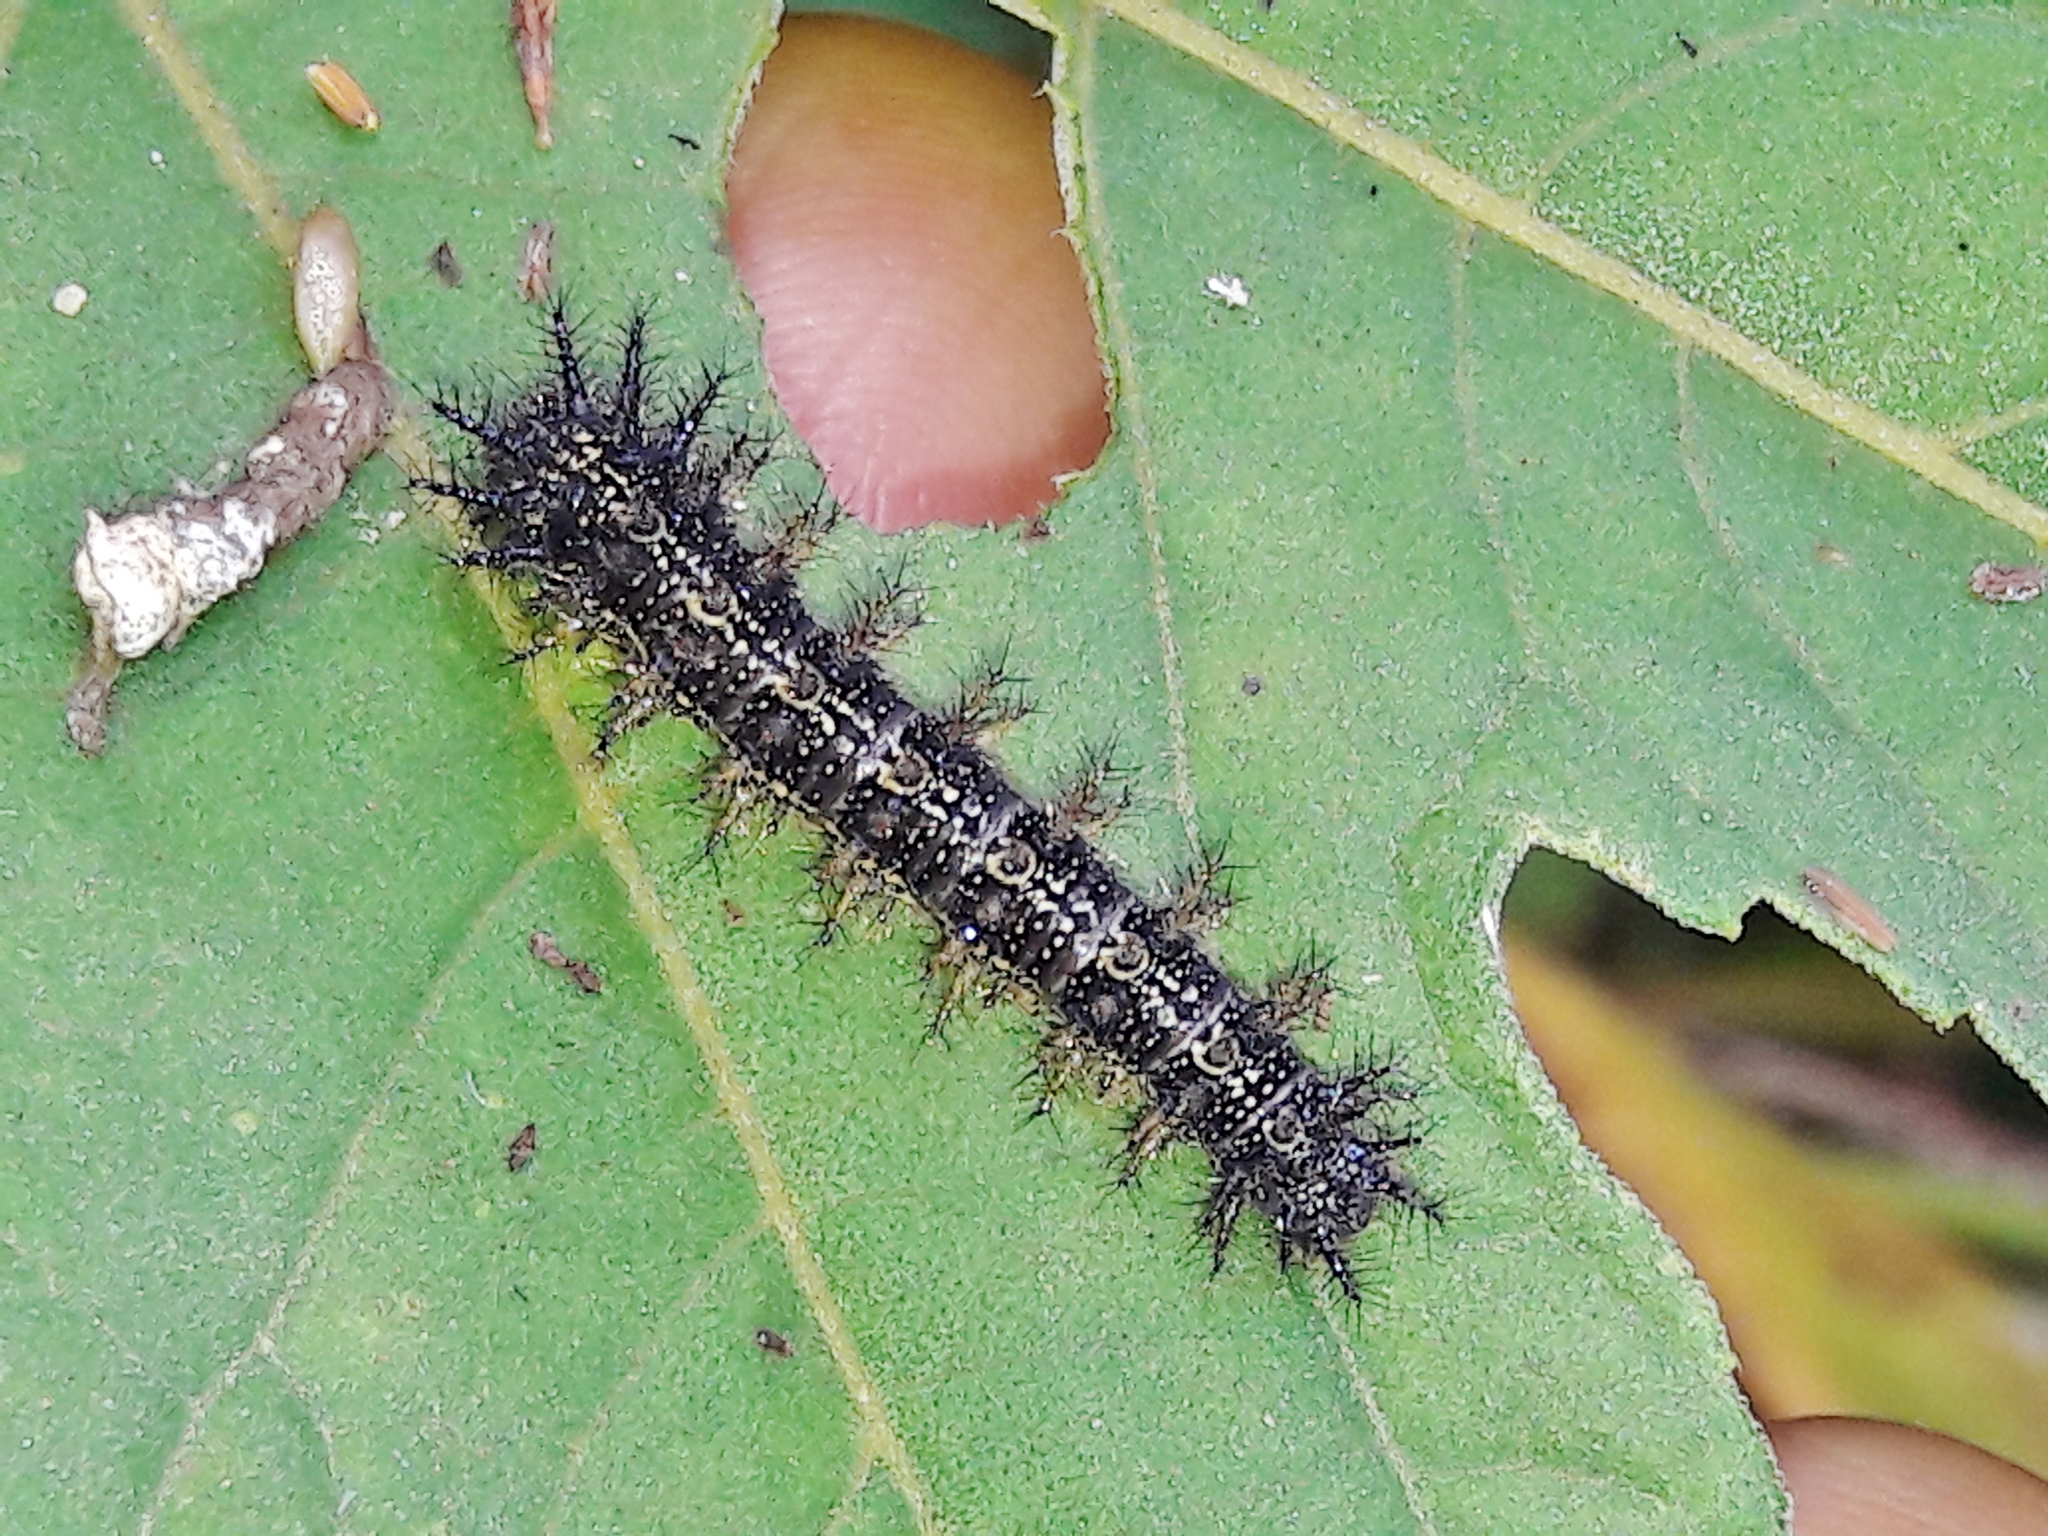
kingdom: Animalia
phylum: Arthropoda
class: Insecta
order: Lepidoptera
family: Nymphalidae
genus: Chlosyne
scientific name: Chlosyne lacinia
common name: Bordered patch
